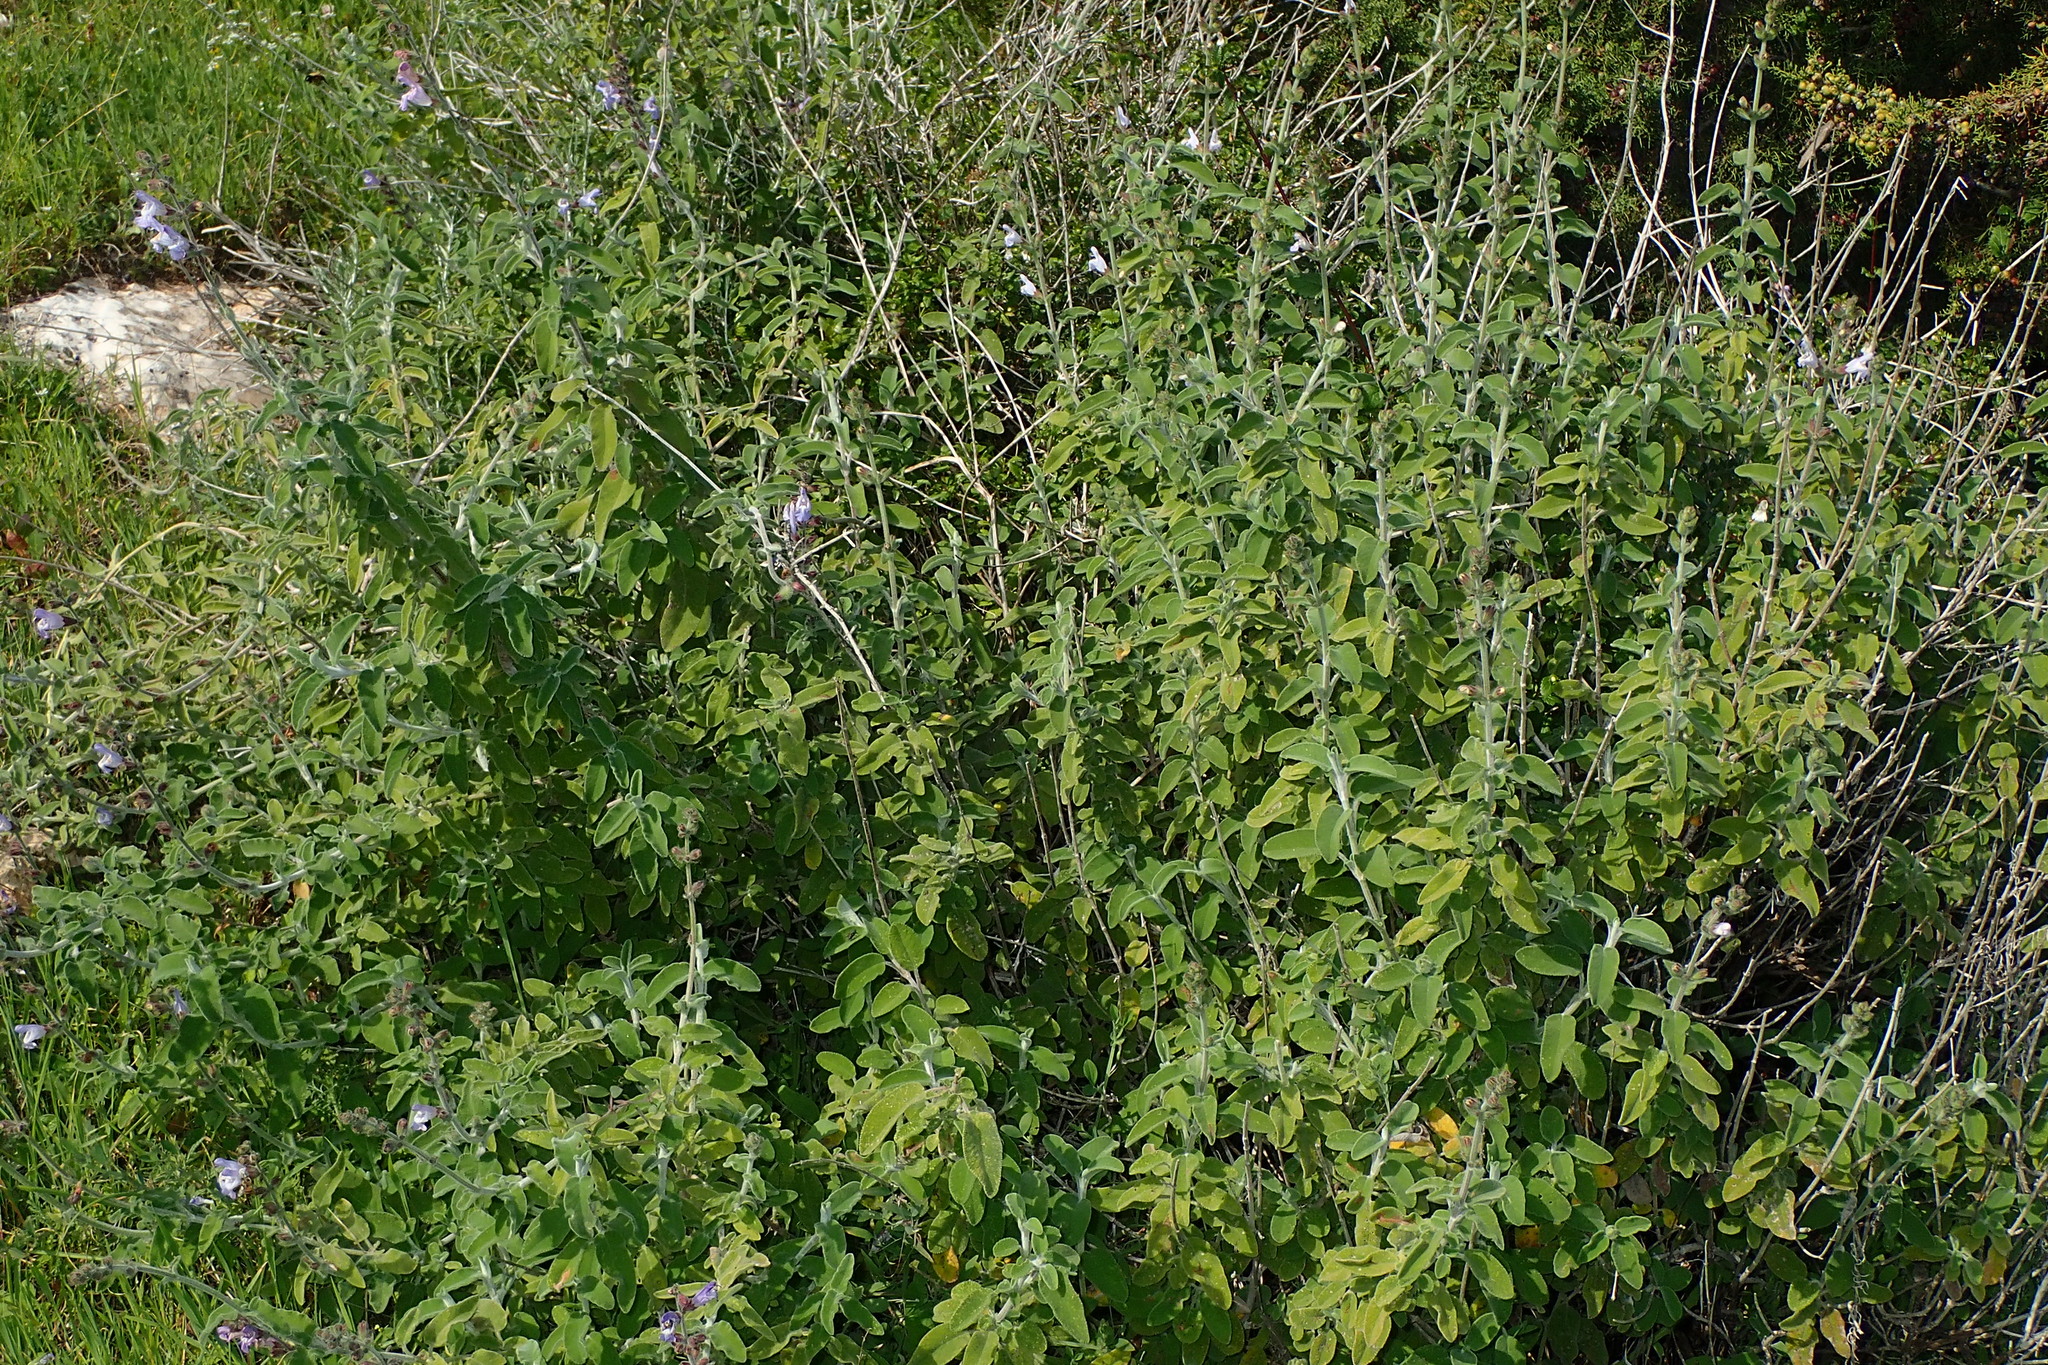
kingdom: Plantae
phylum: Tracheophyta
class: Magnoliopsida
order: Lamiales
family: Lamiaceae
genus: Salvia
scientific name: Salvia fruticosa
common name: Greek sage
